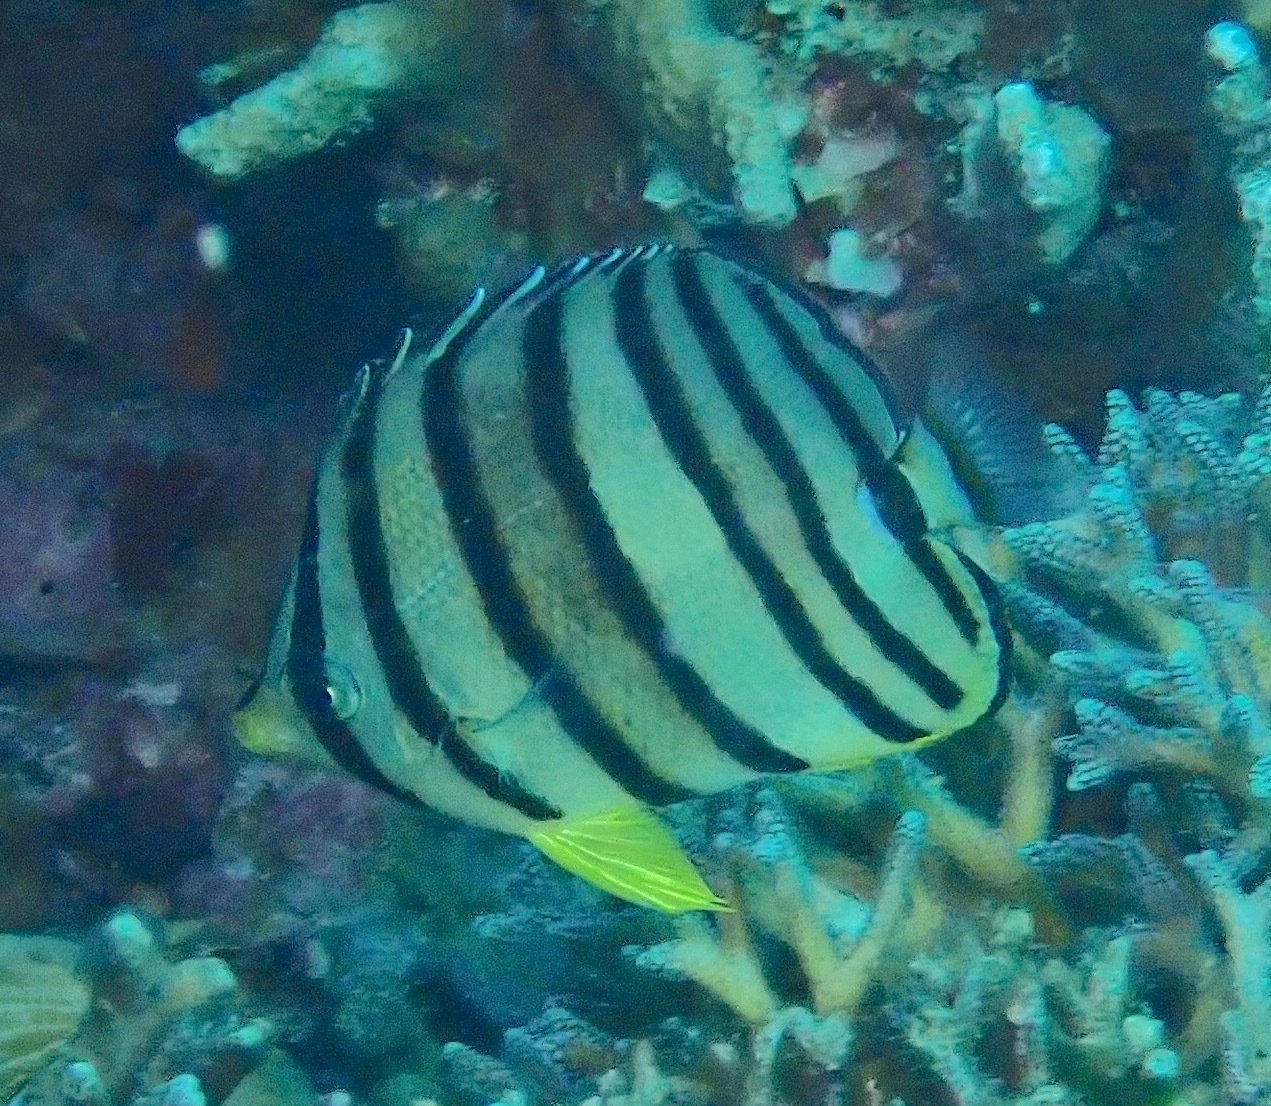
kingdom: Animalia
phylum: Chordata
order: Perciformes
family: Chaetodontidae
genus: Chaetodon
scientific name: Chaetodon octofasciatus
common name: Eightband butterflyfish
